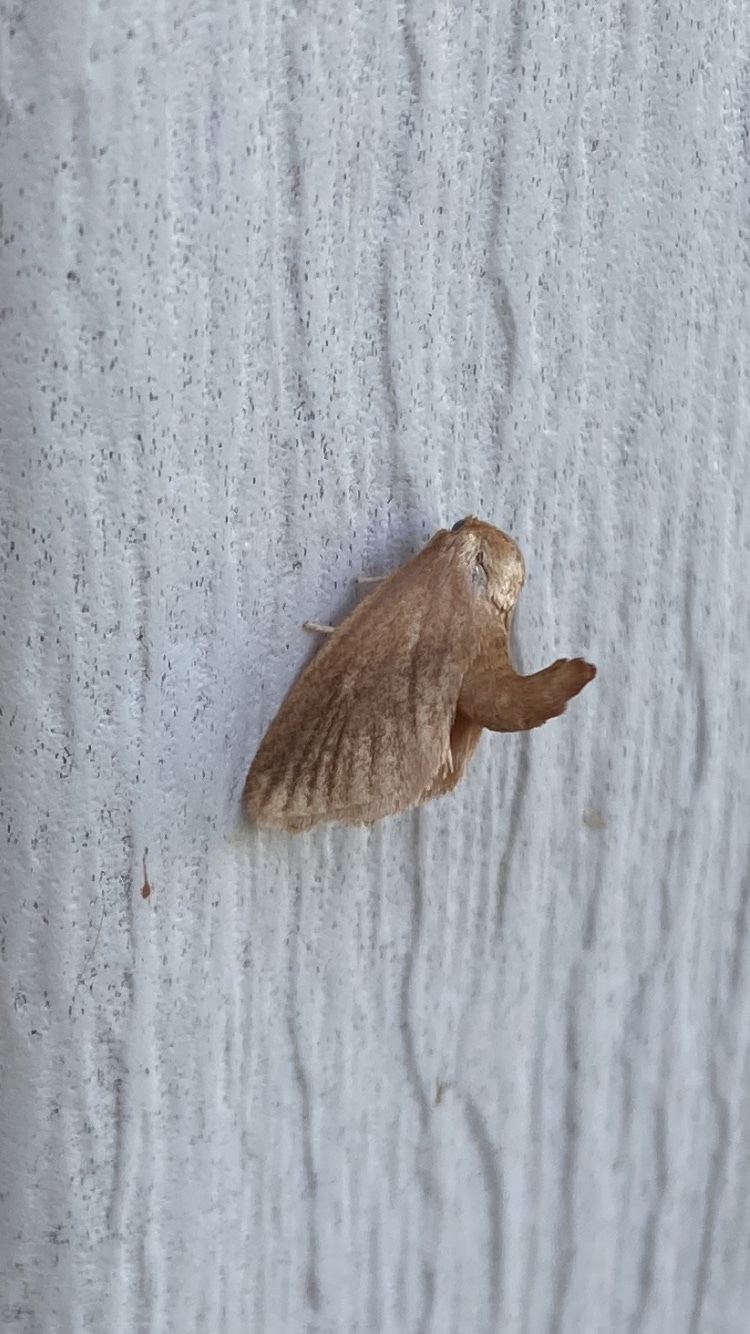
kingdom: Animalia
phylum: Arthropoda
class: Insecta
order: Lepidoptera
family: Limacodidae
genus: Tortricidia
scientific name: Tortricidia testacea
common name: Early button slug moth
